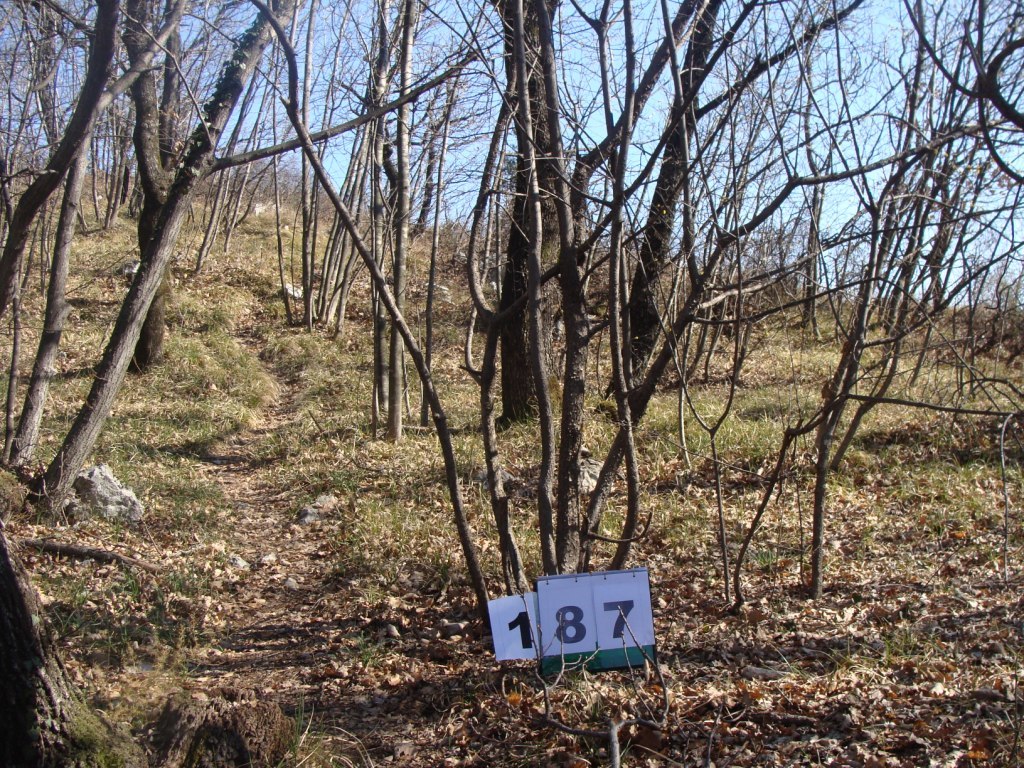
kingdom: Plantae
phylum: Tracheophyta
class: Magnoliopsida
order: Cornales
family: Cornaceae
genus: Cornus
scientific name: Cornus mas
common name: Cornelian-cherry
